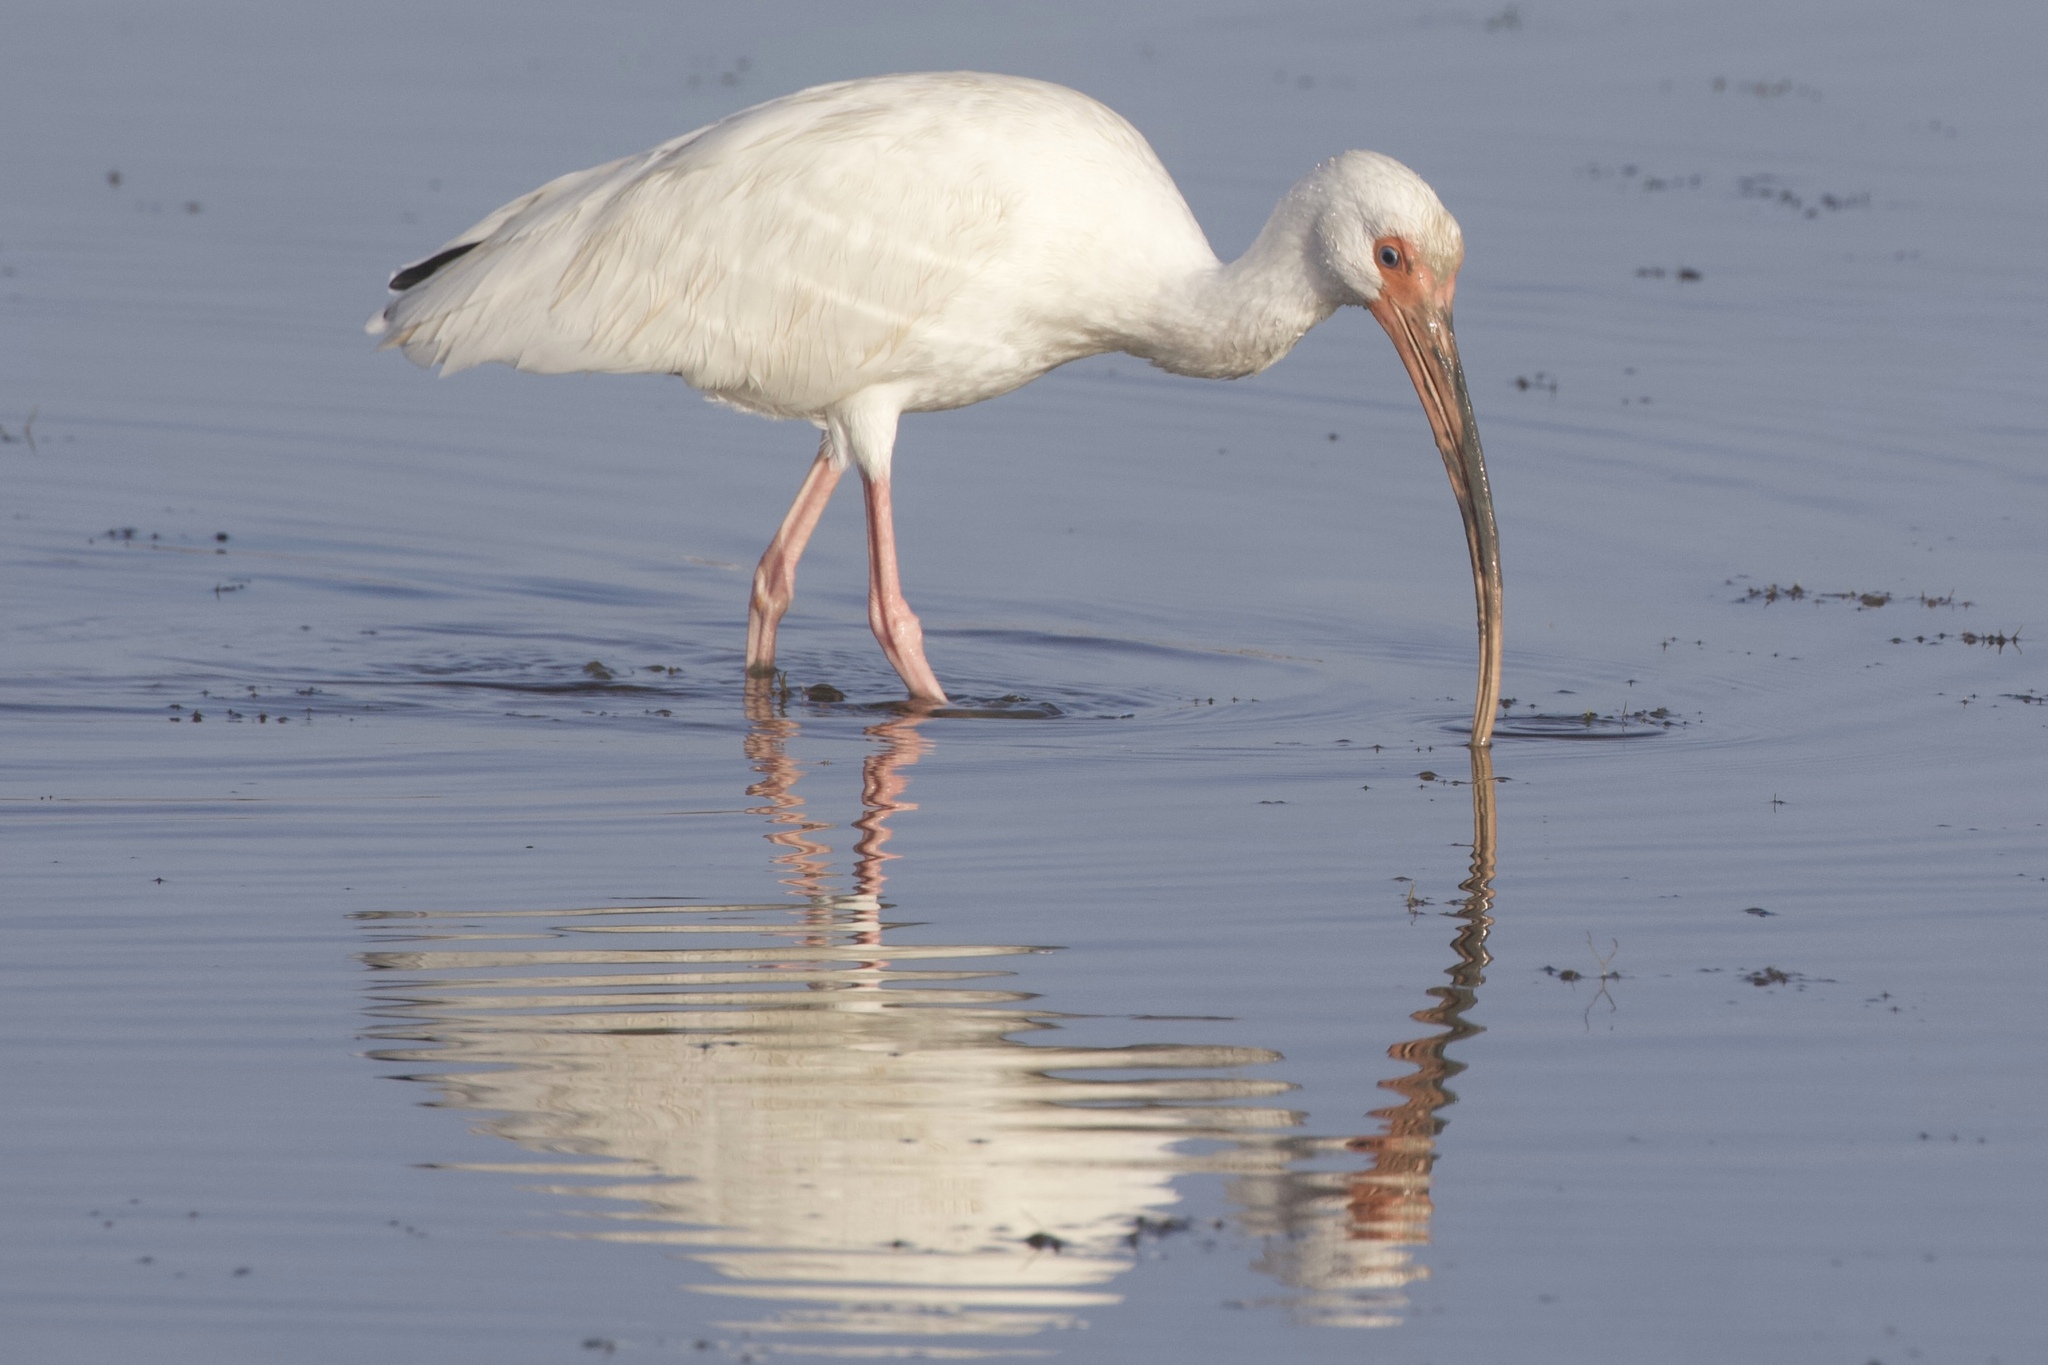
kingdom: Animalia
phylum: Chordata
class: Aves
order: Pelecaniformes
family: Threskiornithidae
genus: Eudocimus
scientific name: Eudocimus albus
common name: White ibis
